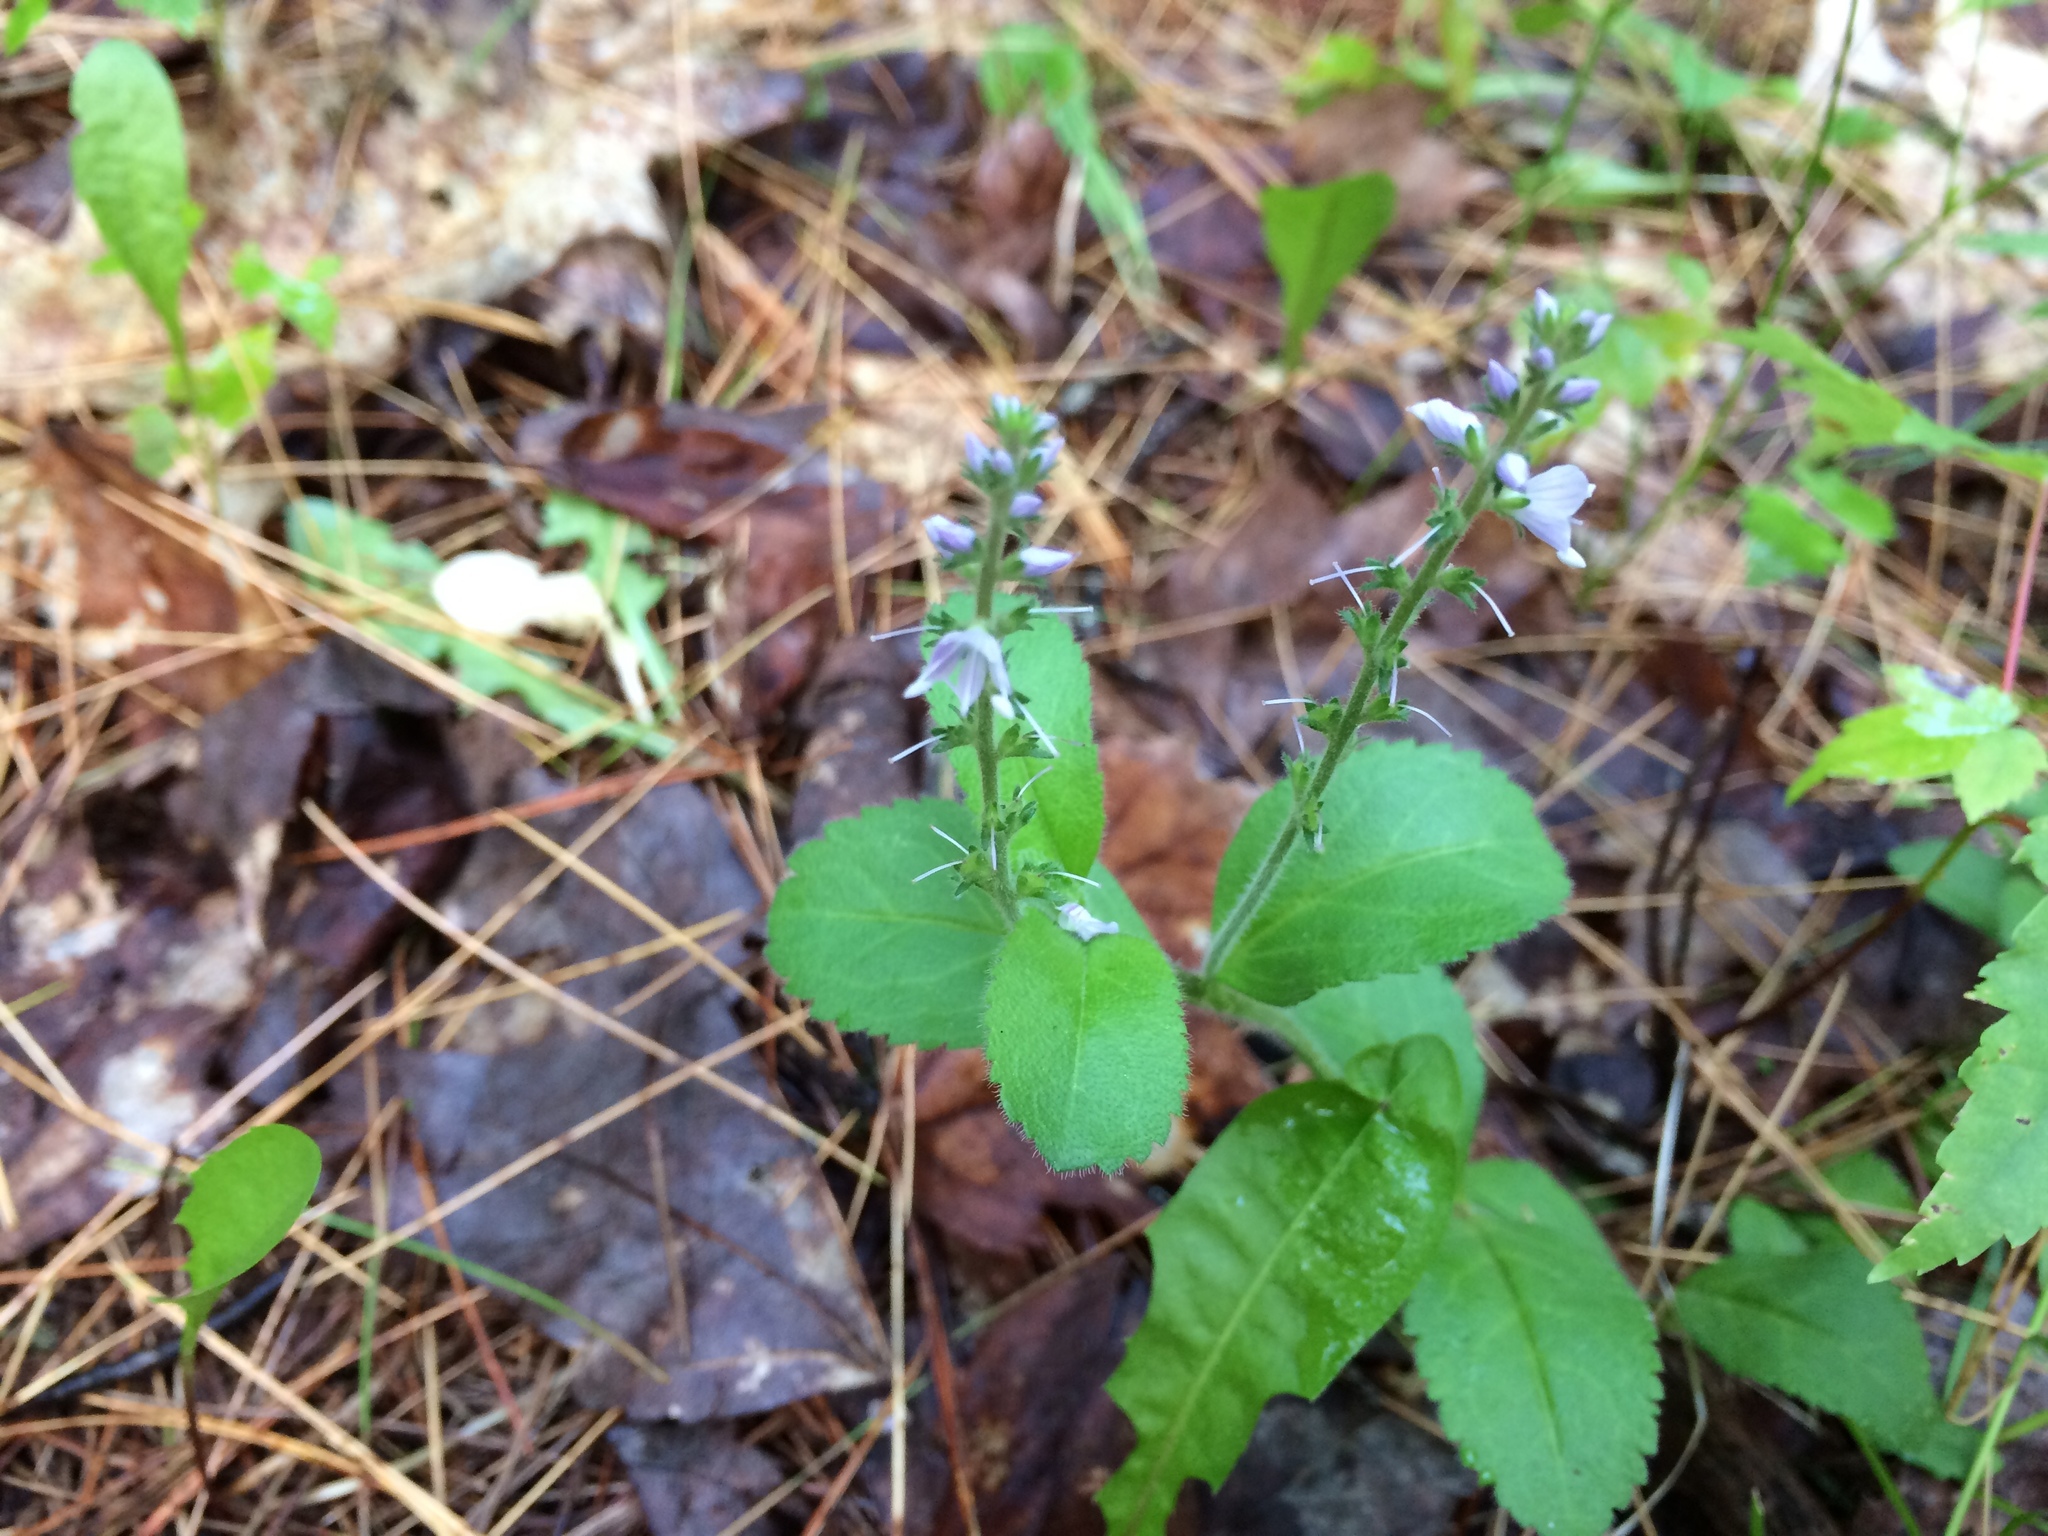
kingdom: Plantae
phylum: Tracheophyta
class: Magnoliopsida
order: Lamiales
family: Plantaginaceae
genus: Veronica
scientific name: Veronica officinalis
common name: Common speedwell
